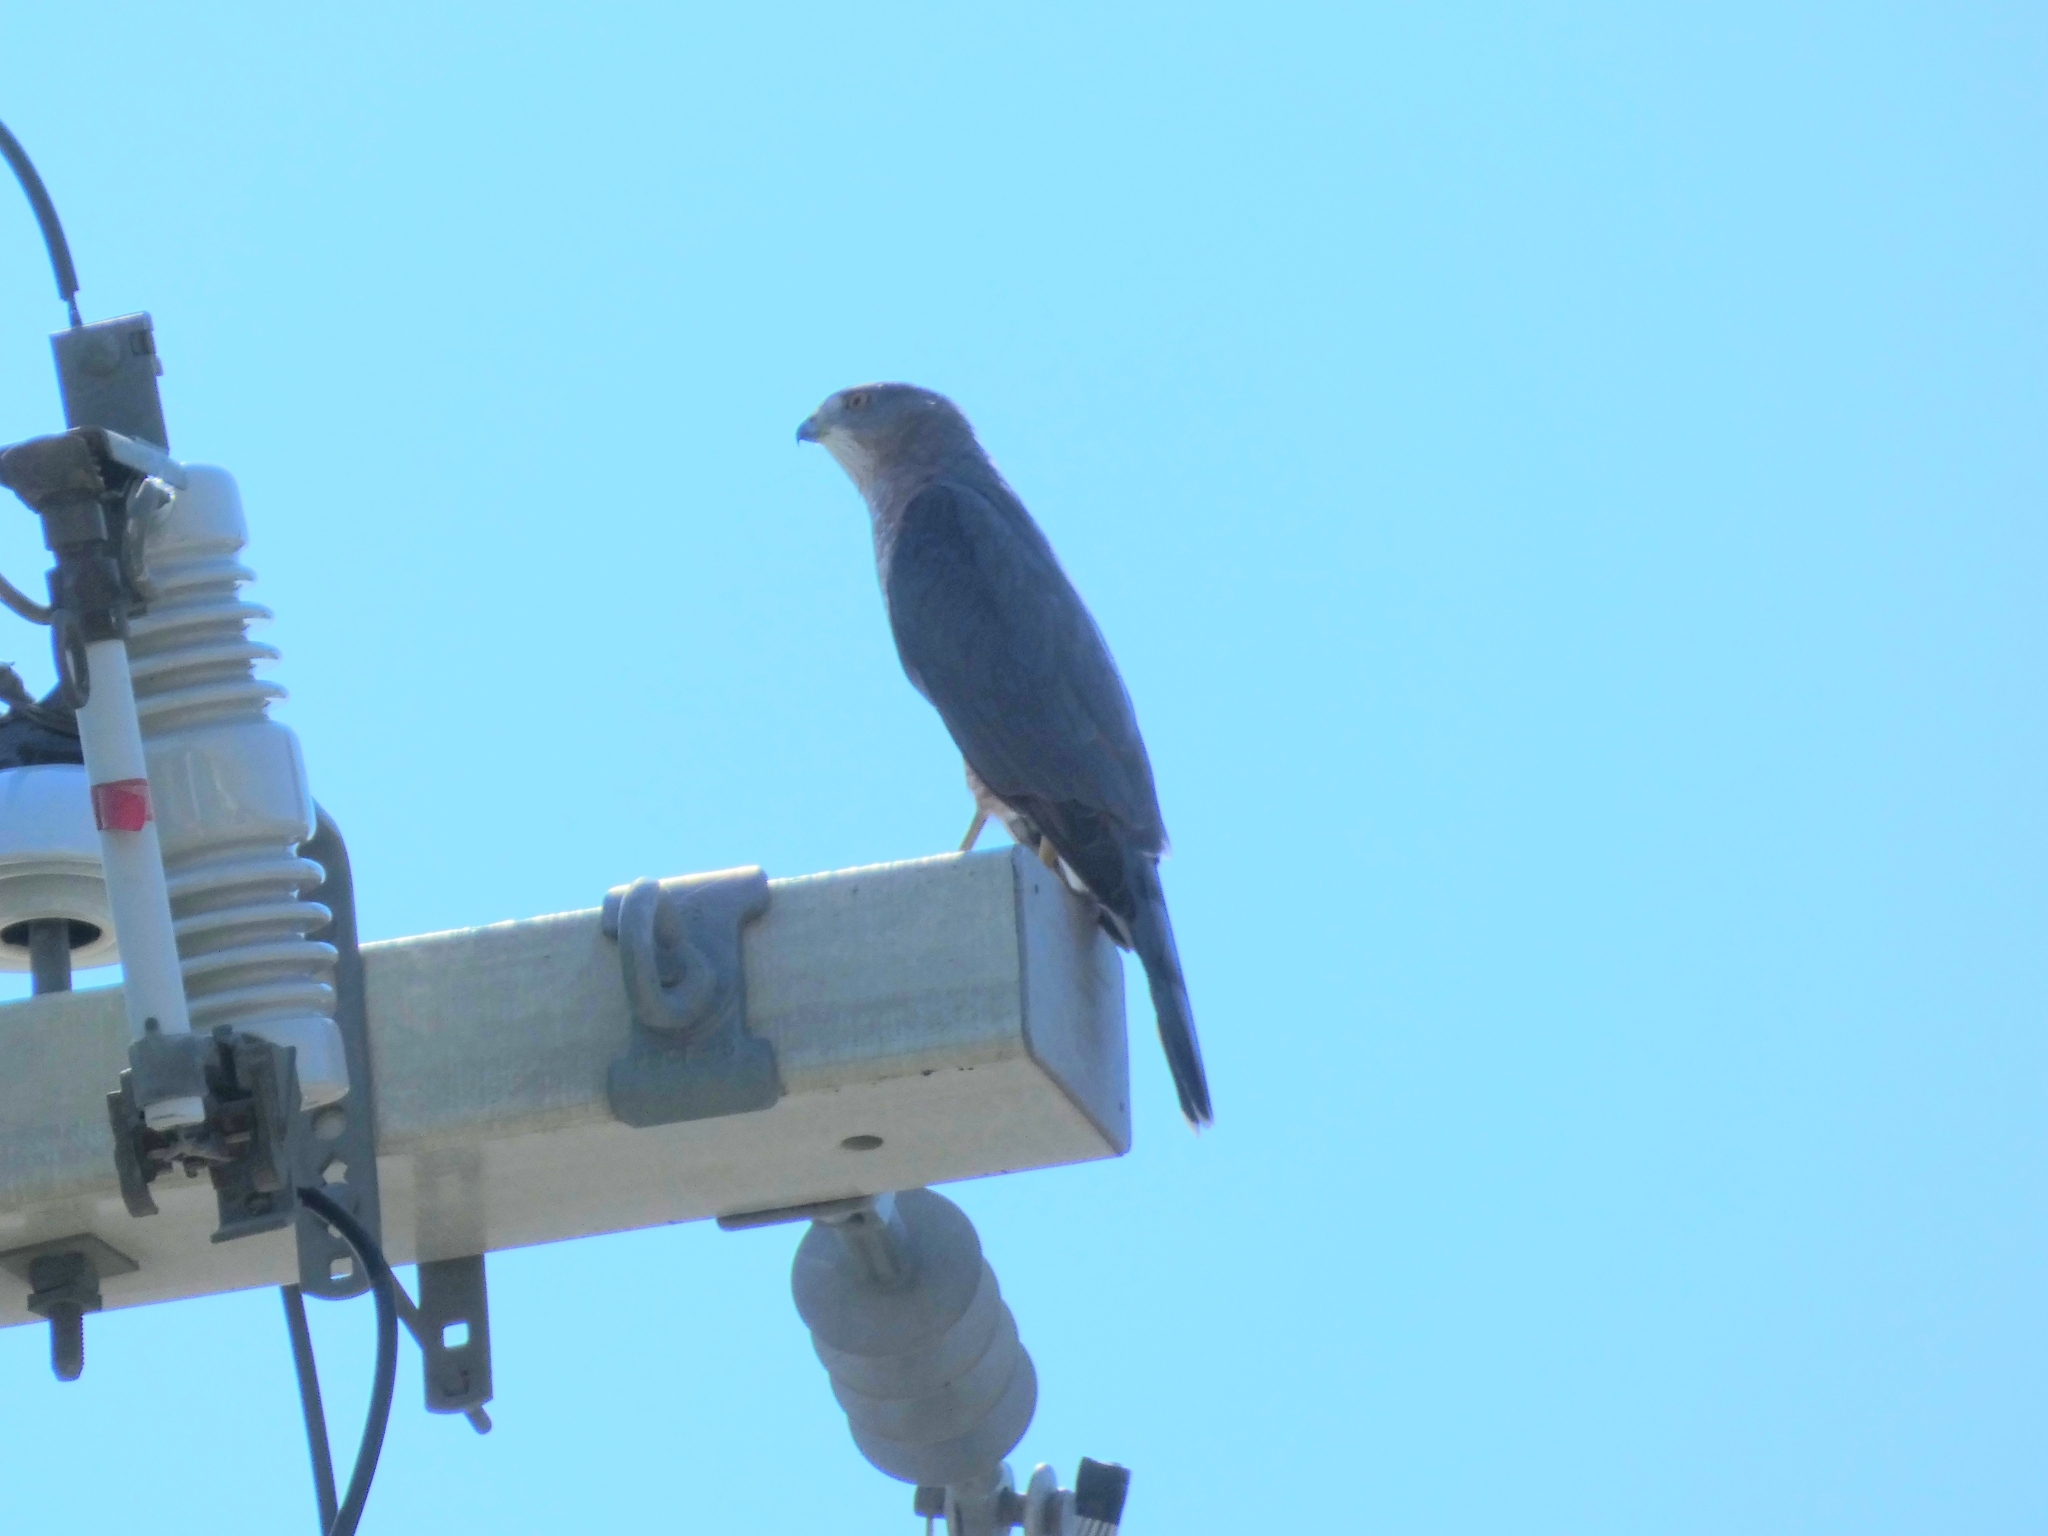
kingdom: Animalia
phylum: Chordata
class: Aves
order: Accipitriformes
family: Accipitridae
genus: Accipiter
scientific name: Accipiter cooperii
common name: Cooper's hawk
